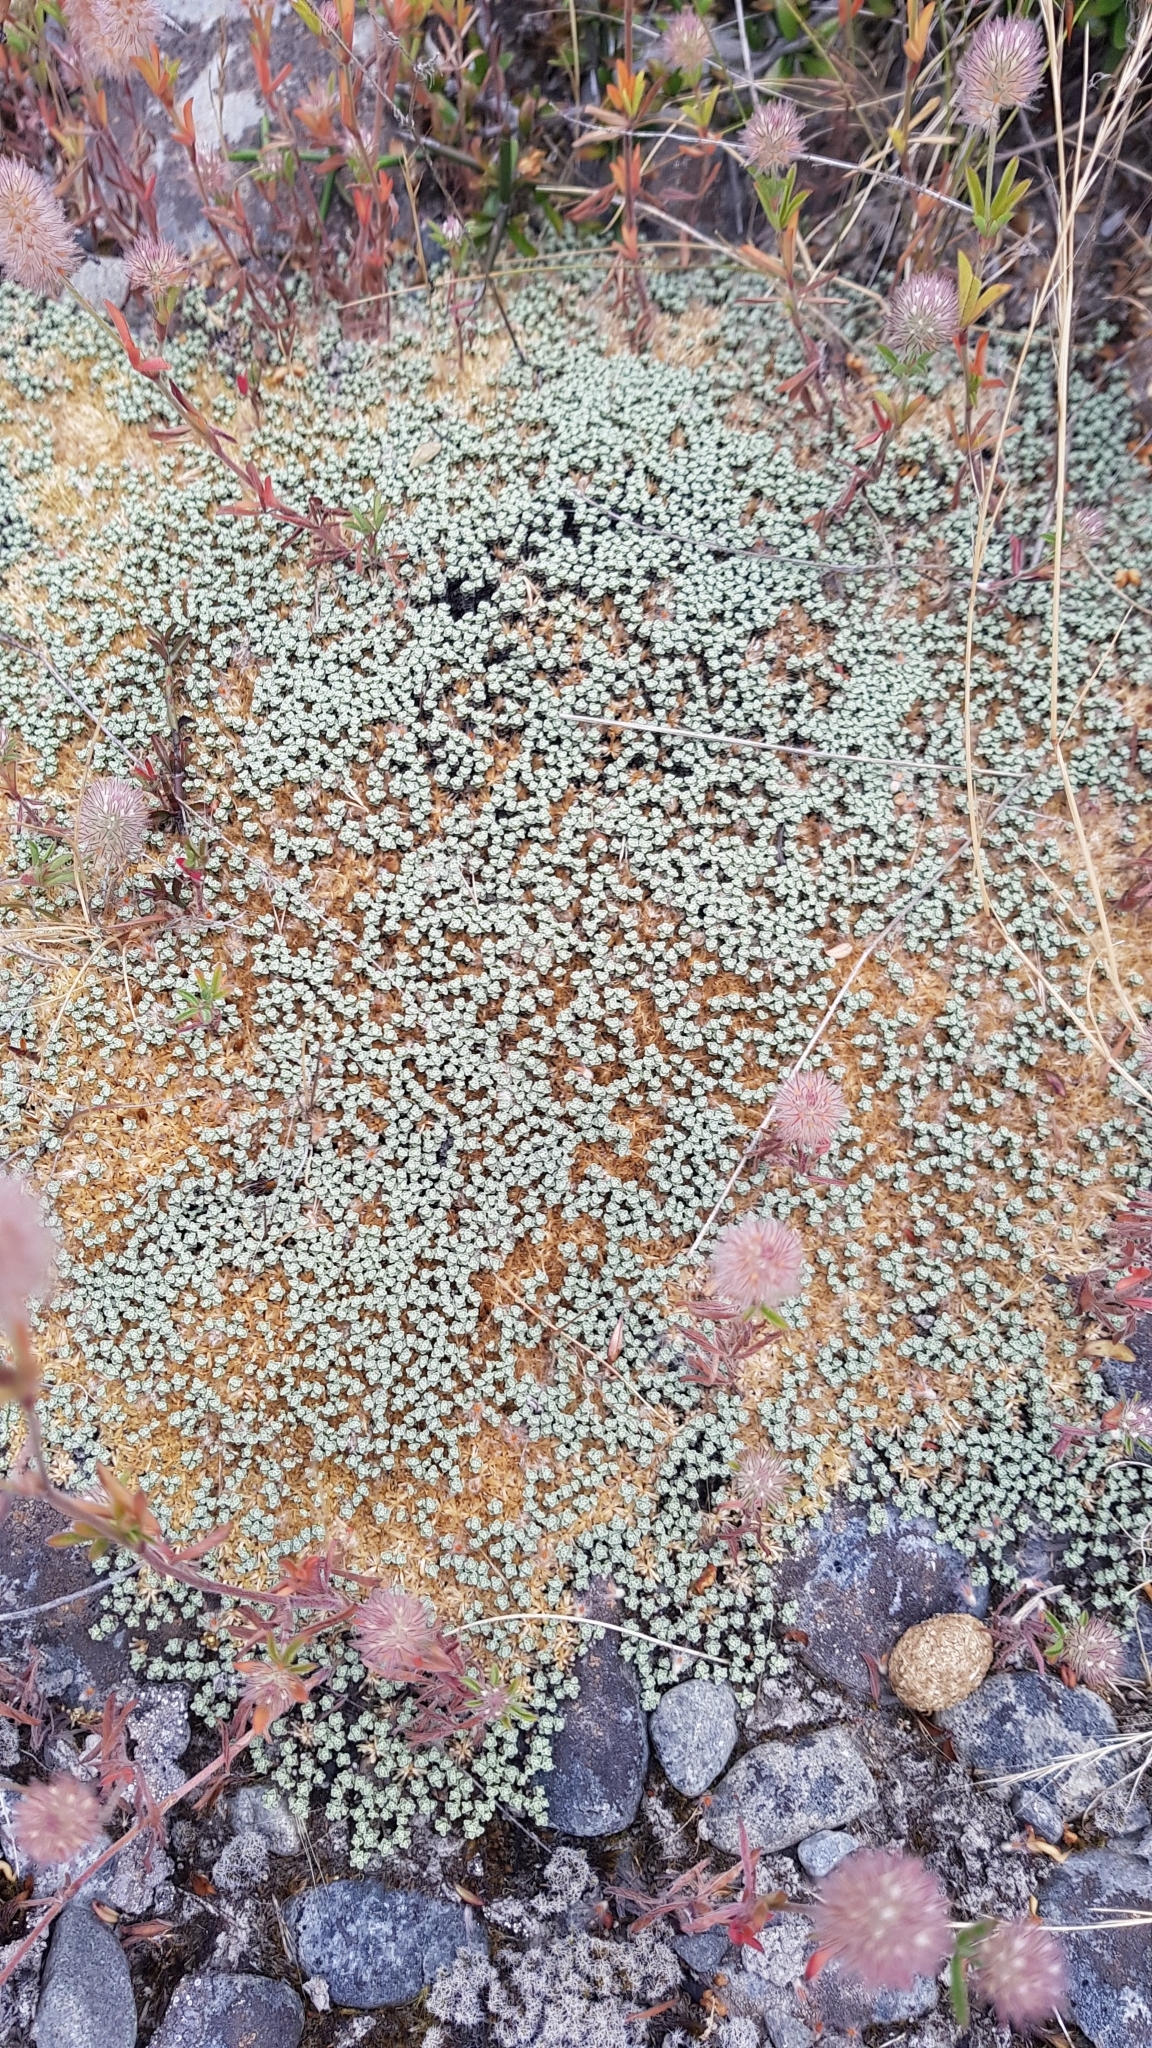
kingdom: Plantae
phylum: Tracheophyta
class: Magnoliopsida
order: Asterales
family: Asteraceae
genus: Raoulia
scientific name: Raoulia australis
